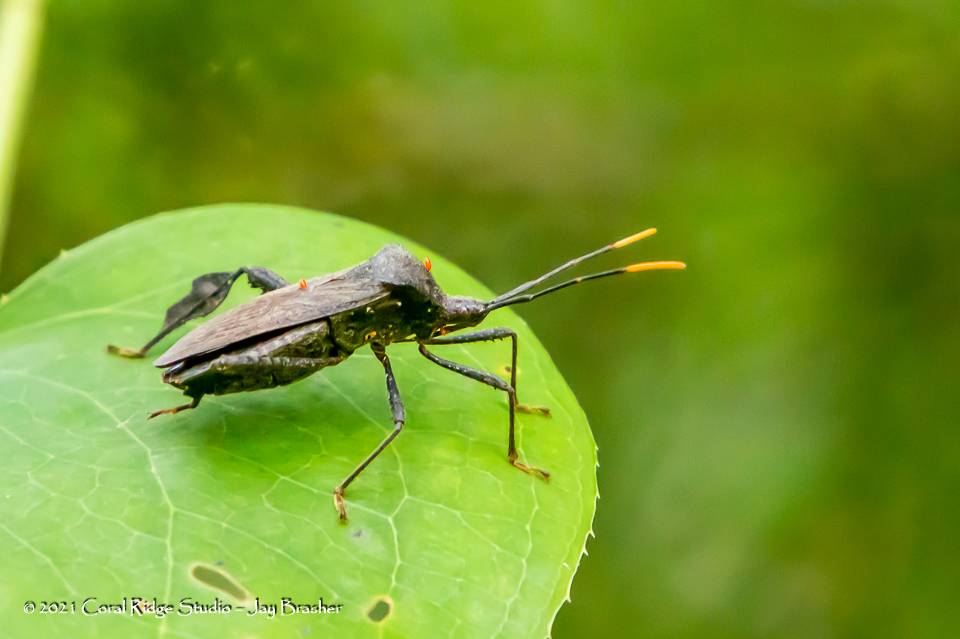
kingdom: Animalia
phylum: Arthropoda
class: Insecta
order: Hemiptera
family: Coreidae
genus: Acanthocephala
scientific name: Acanthocephala terminalis
